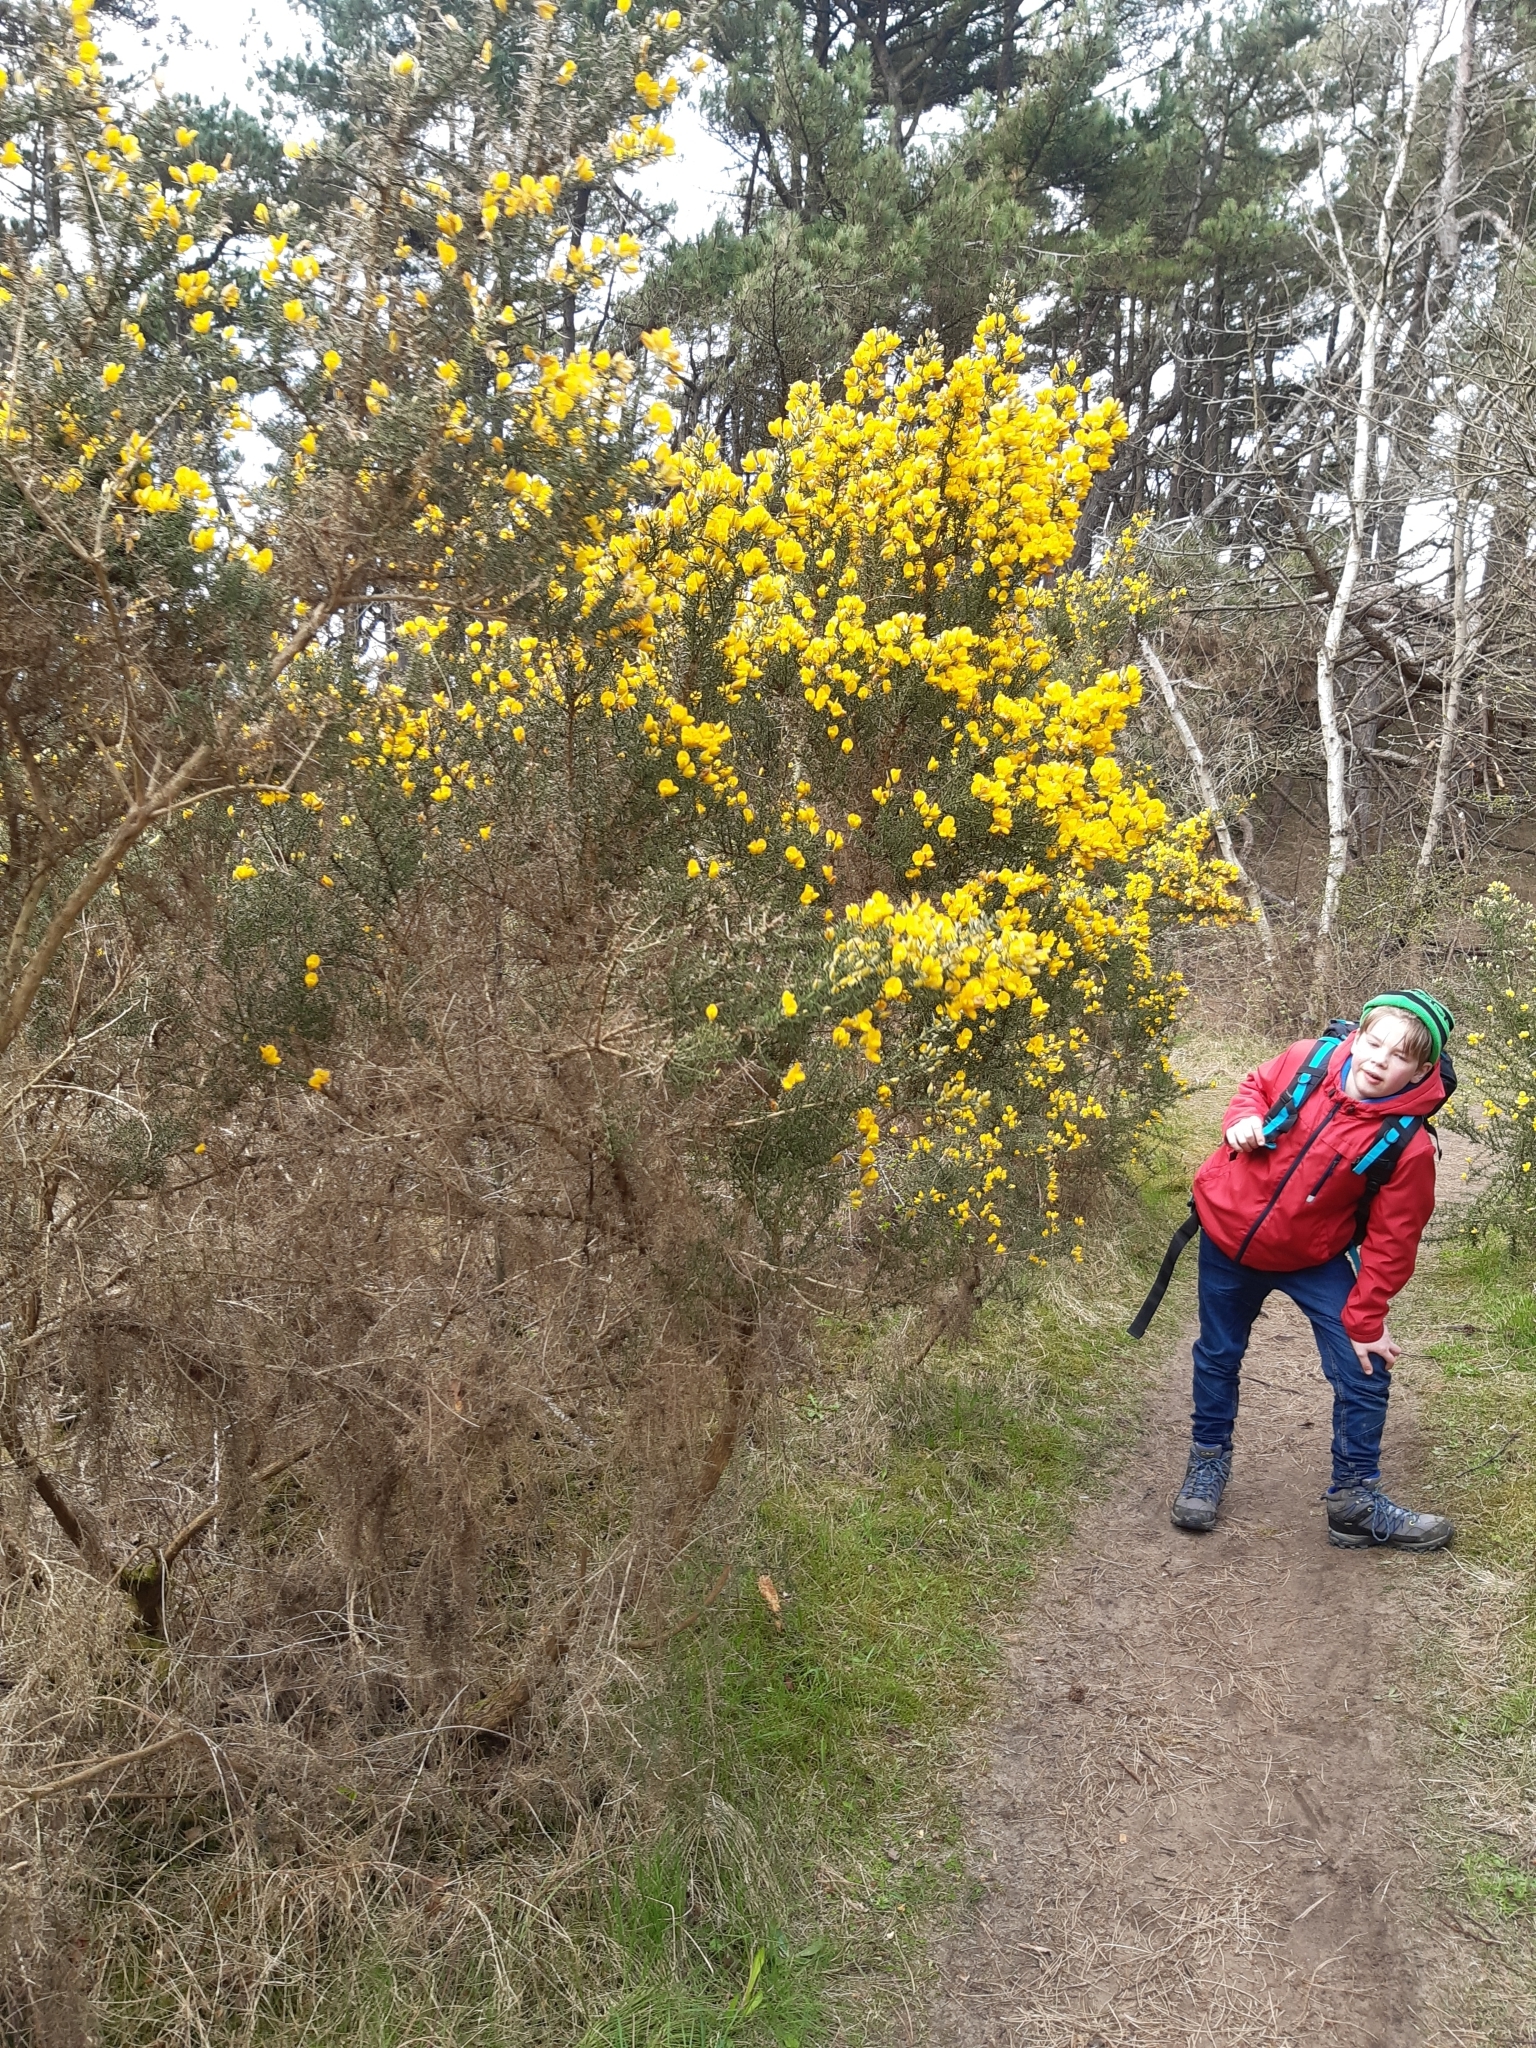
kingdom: Plantae
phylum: Tracheophyta
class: Magnoliopsida
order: Fabales
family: Fabaceae
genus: Ulex
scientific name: Ulex europaeus
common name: Common gorse
